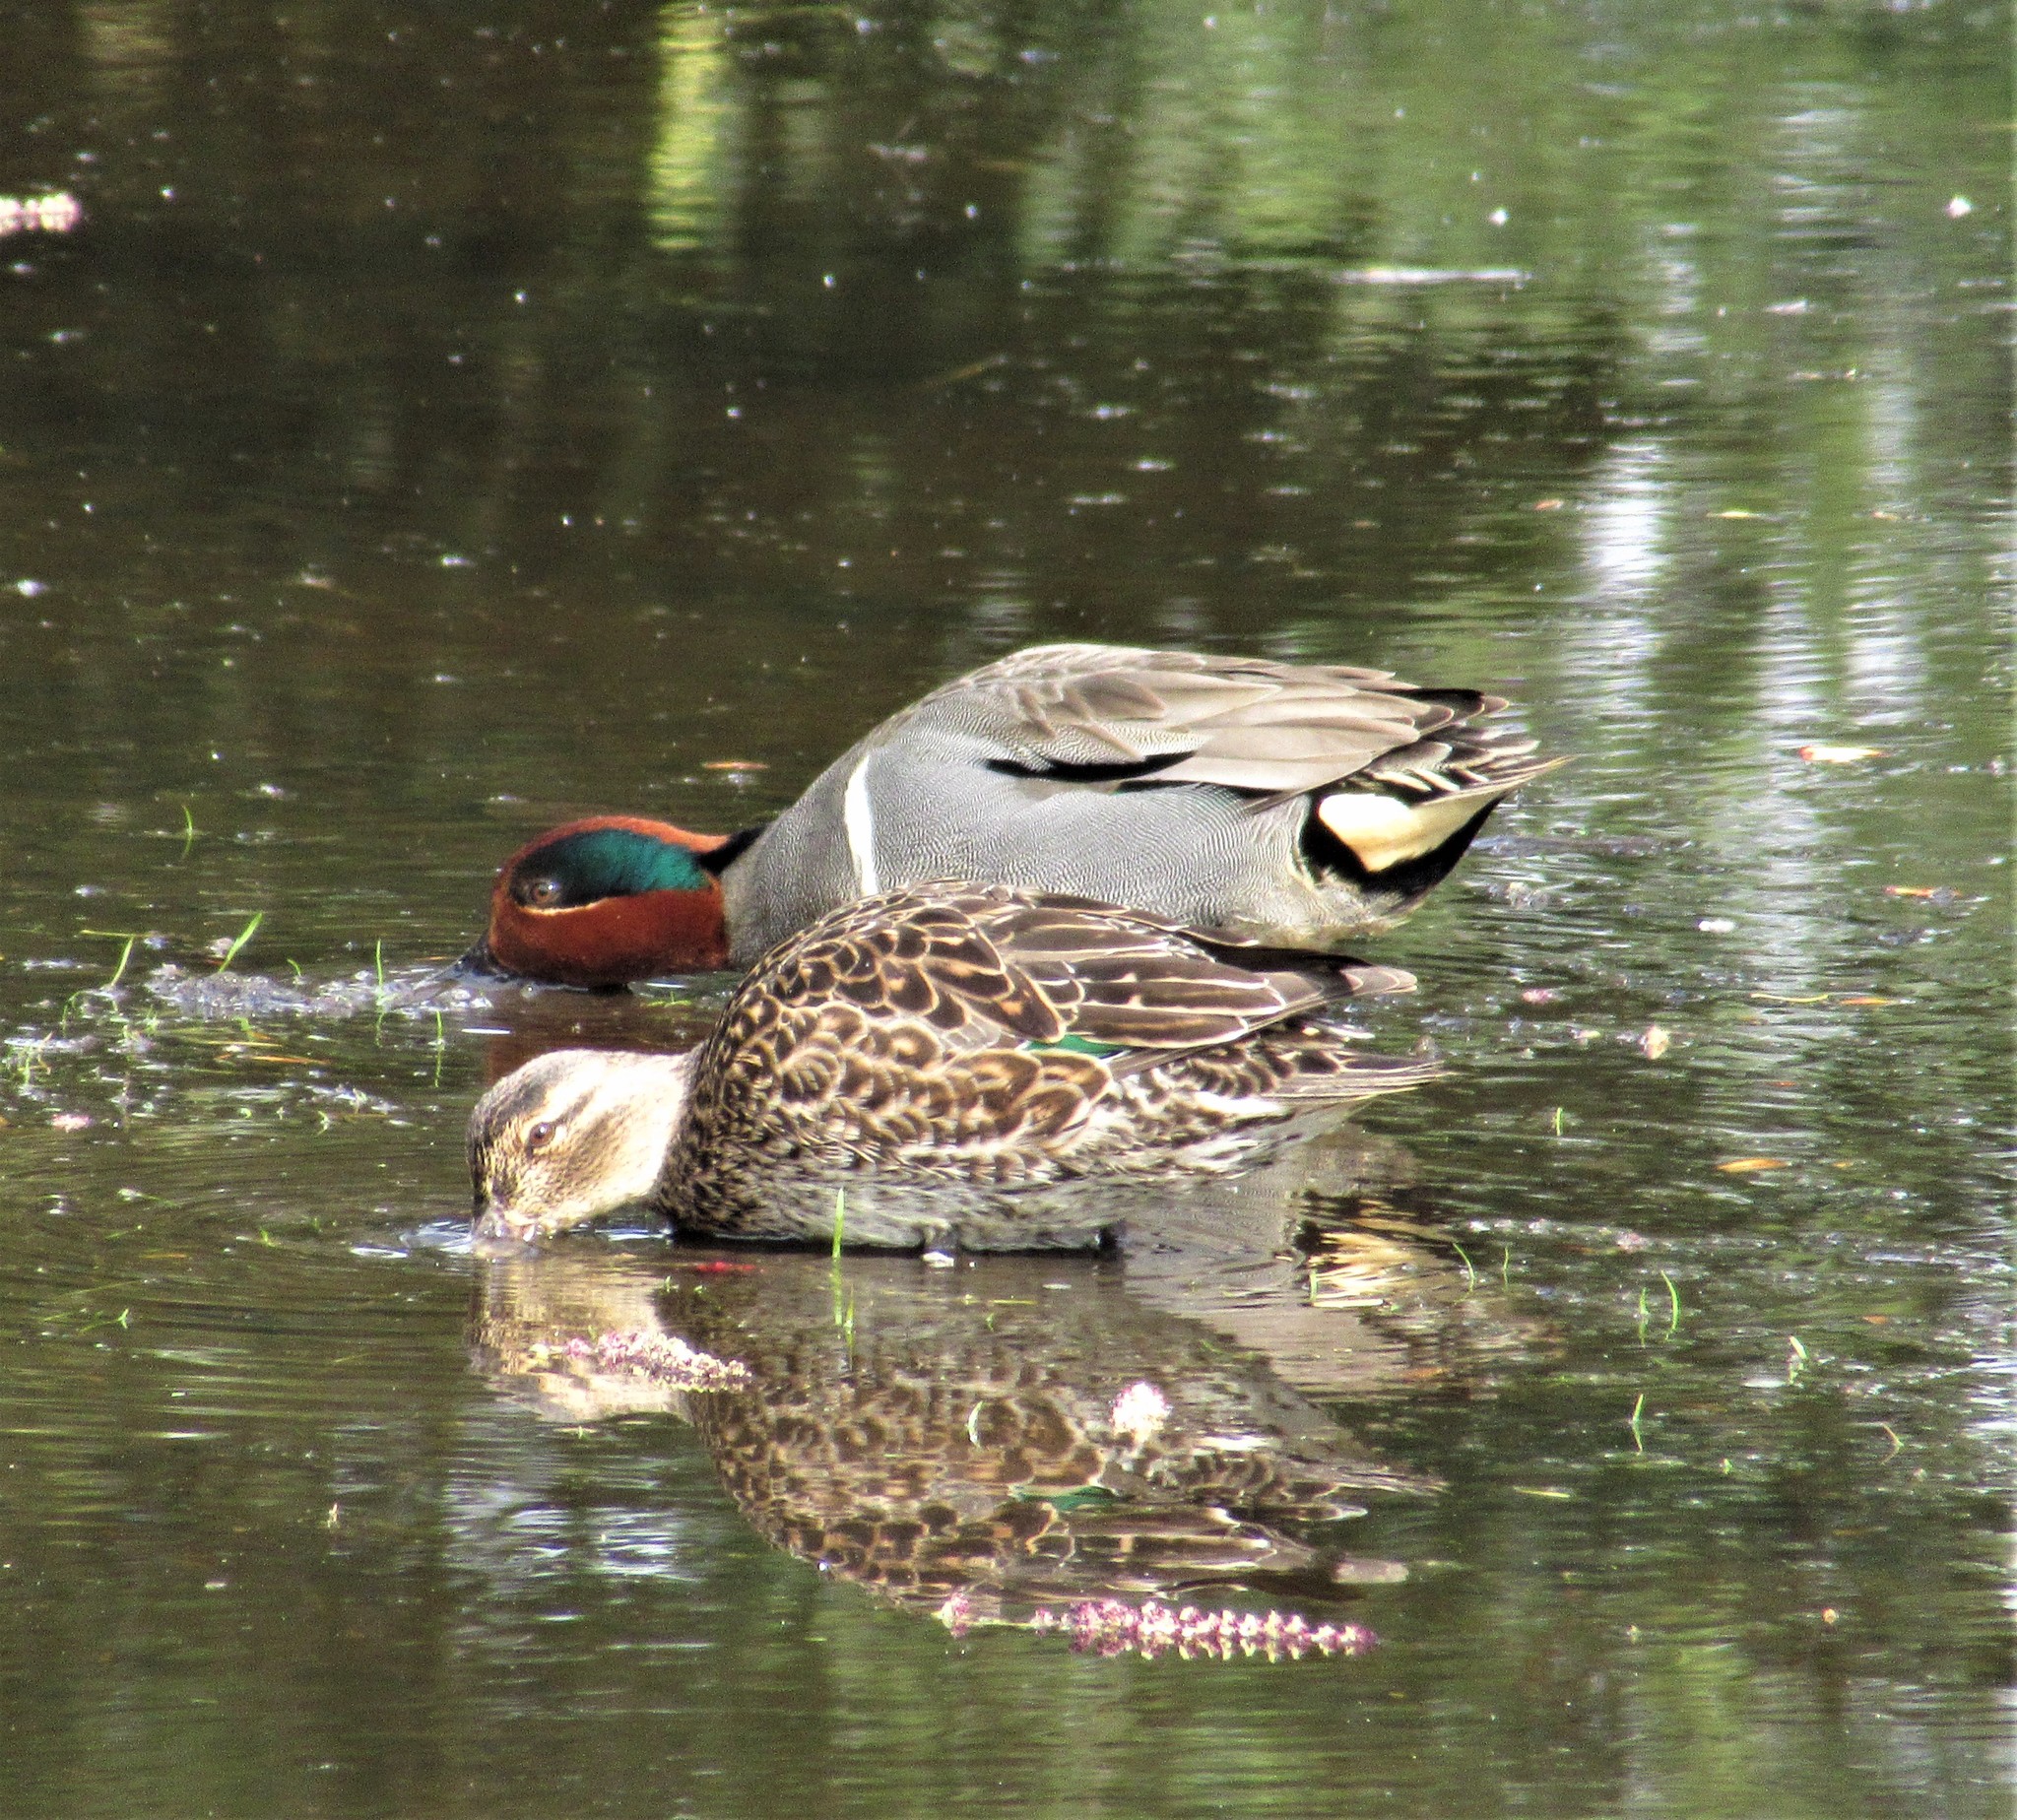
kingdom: Animalia
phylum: Chordata
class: Aves
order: Anseriformes
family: Anatidae
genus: Anas
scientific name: Anas crecca
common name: Eurasian teal
